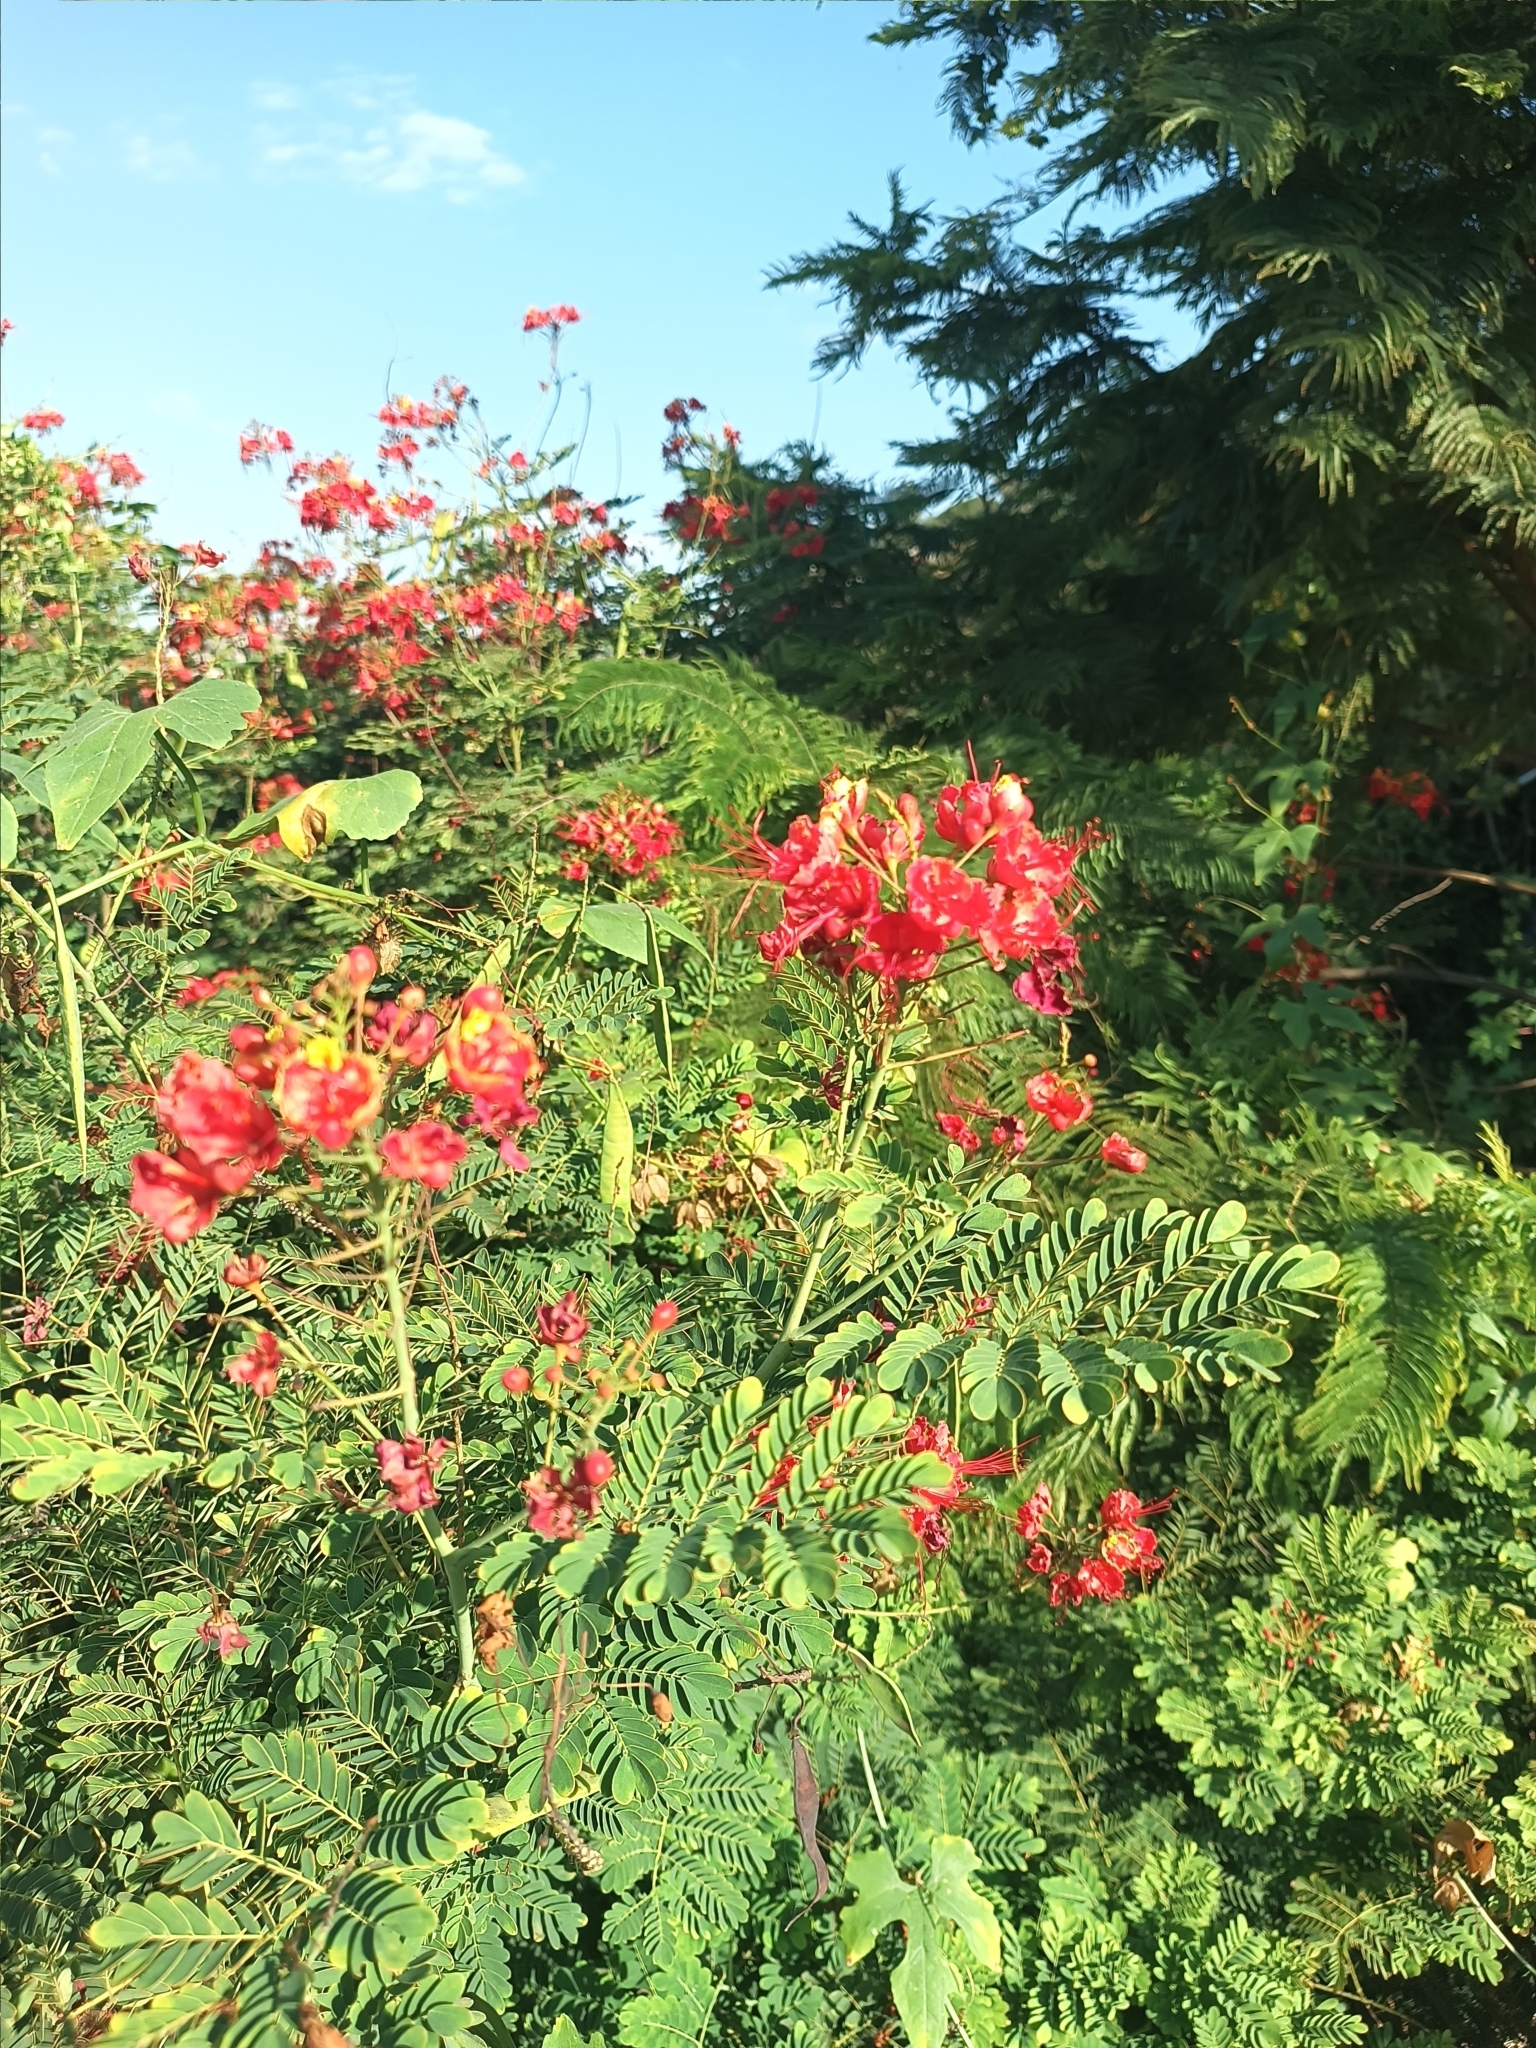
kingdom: Plantae
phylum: Tracheophyta
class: Magnoliopsida
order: Fabales
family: Fabaceae
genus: Caesalpinia
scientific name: Caesalpinia pulcherrima
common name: Pride-of-barbados
